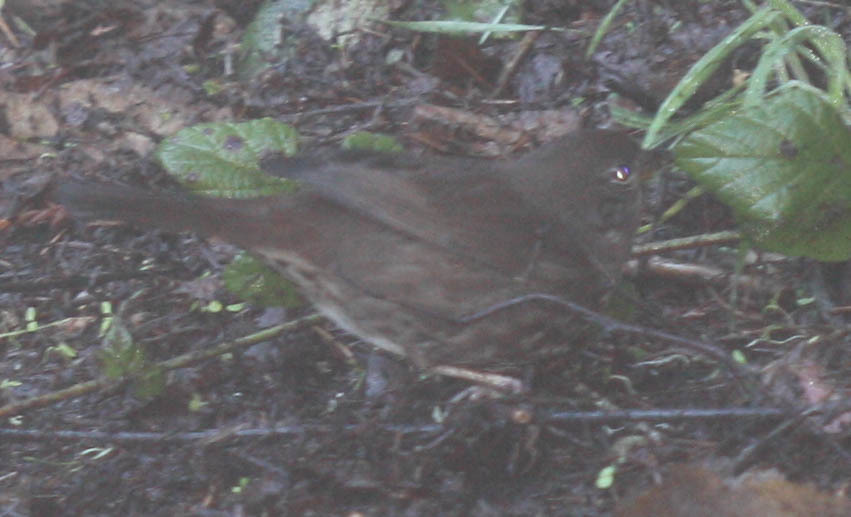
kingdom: Animalia
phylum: Chordata
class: Aves
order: Passeriformes
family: Passerellidae
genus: Passerella
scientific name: Passerella iliaca
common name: Fox sparrow
